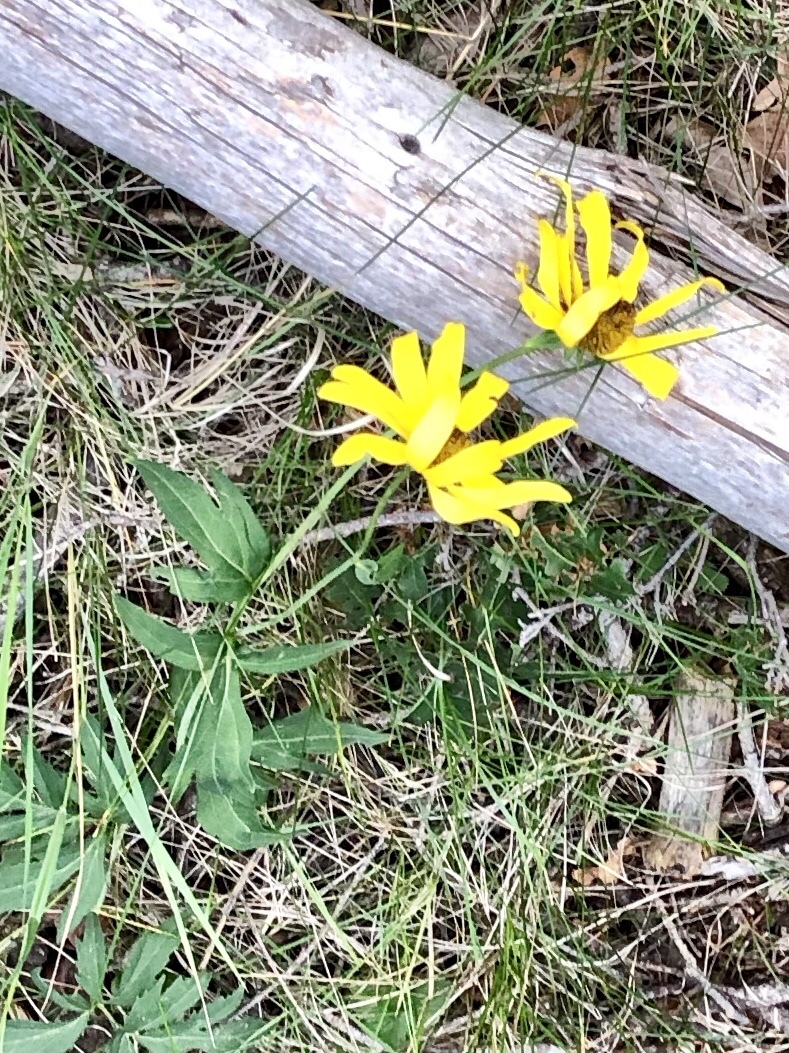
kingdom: Plantae
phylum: Tracheophyta
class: Magnoliopsida
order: Asterales
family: Asteraceae
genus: Rudbeckia
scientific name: Rudbeckia laciniata
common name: Coneflower
